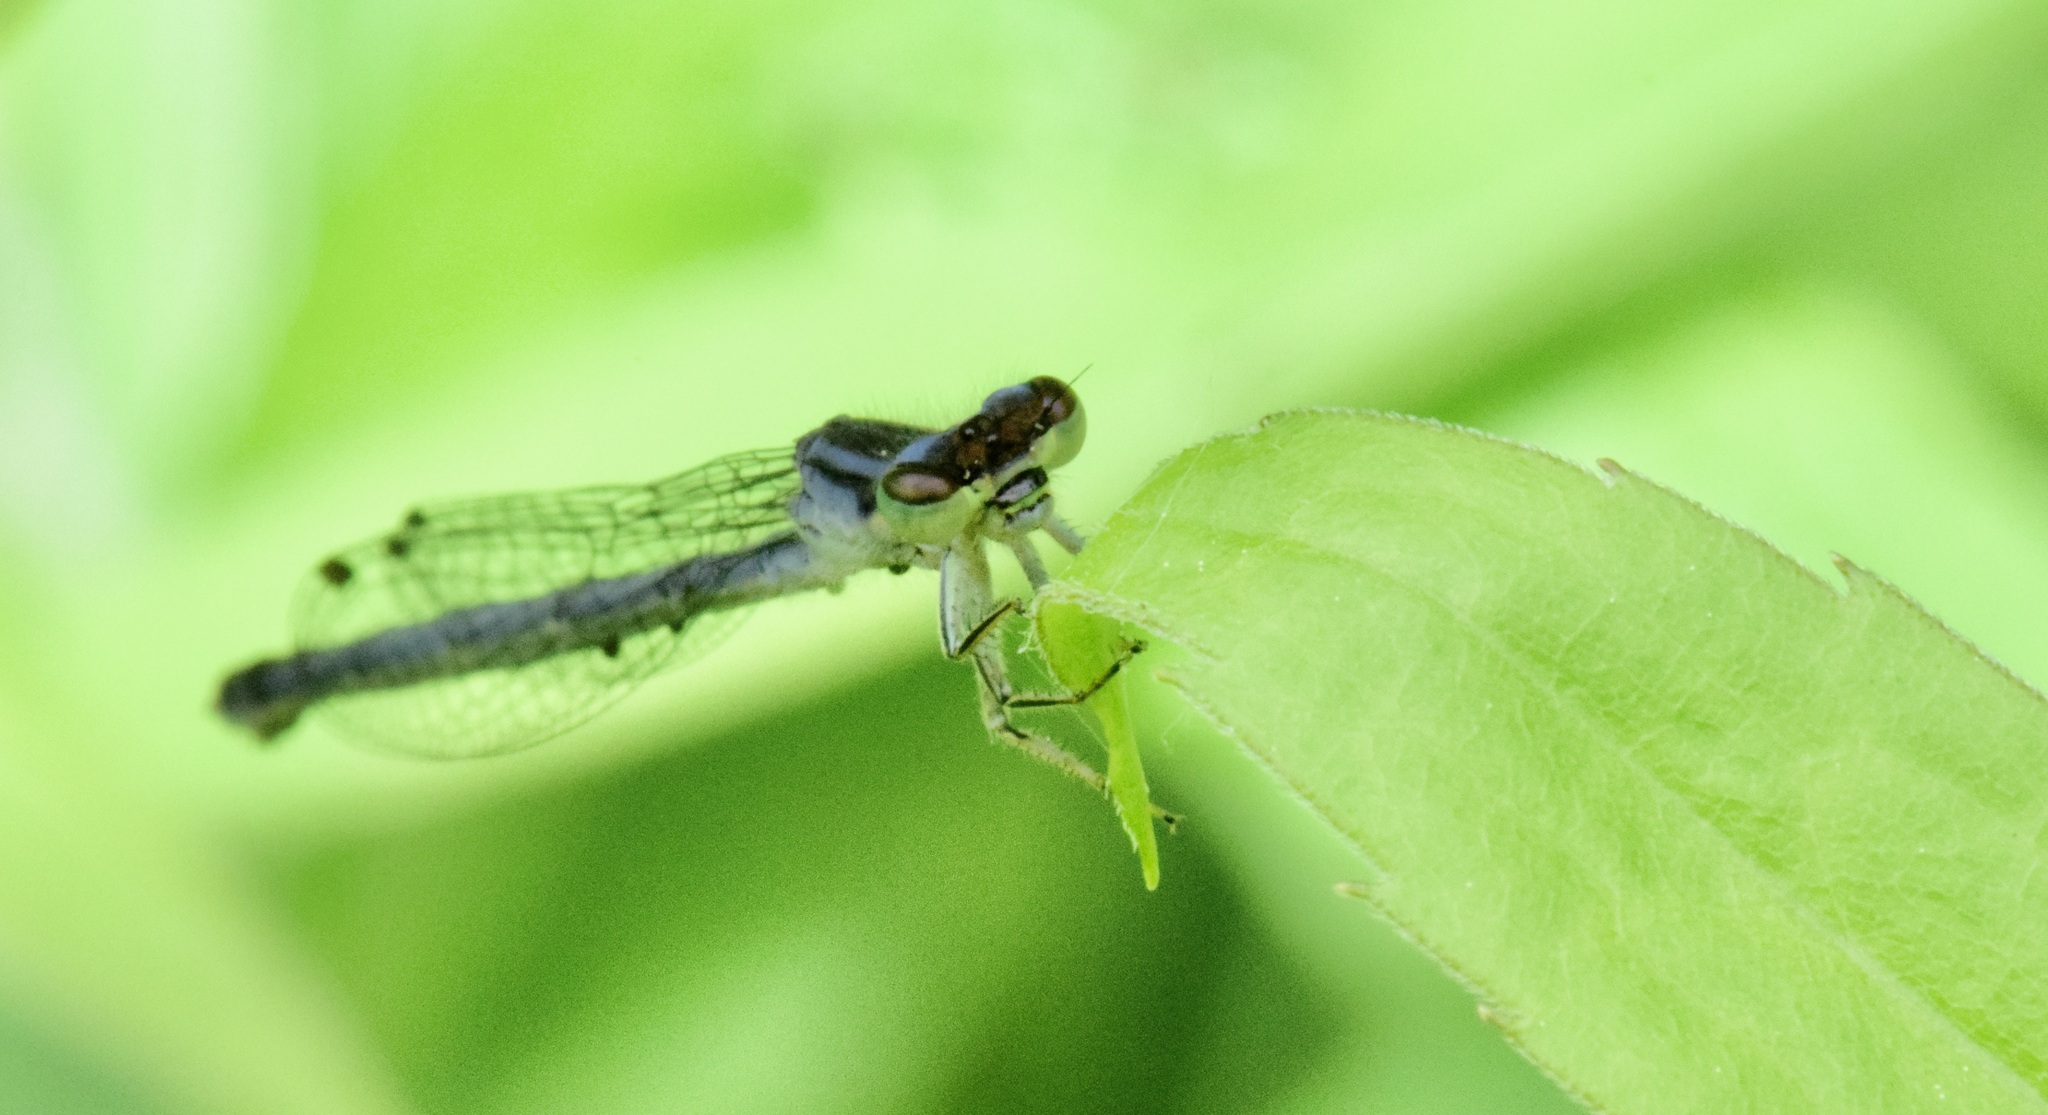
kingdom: Animalia
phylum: Arthropoda
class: Insecta
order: Odonata
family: Coenagrionidae
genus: Ischnura
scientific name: Ischnura verticalis
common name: Eastern forktail
